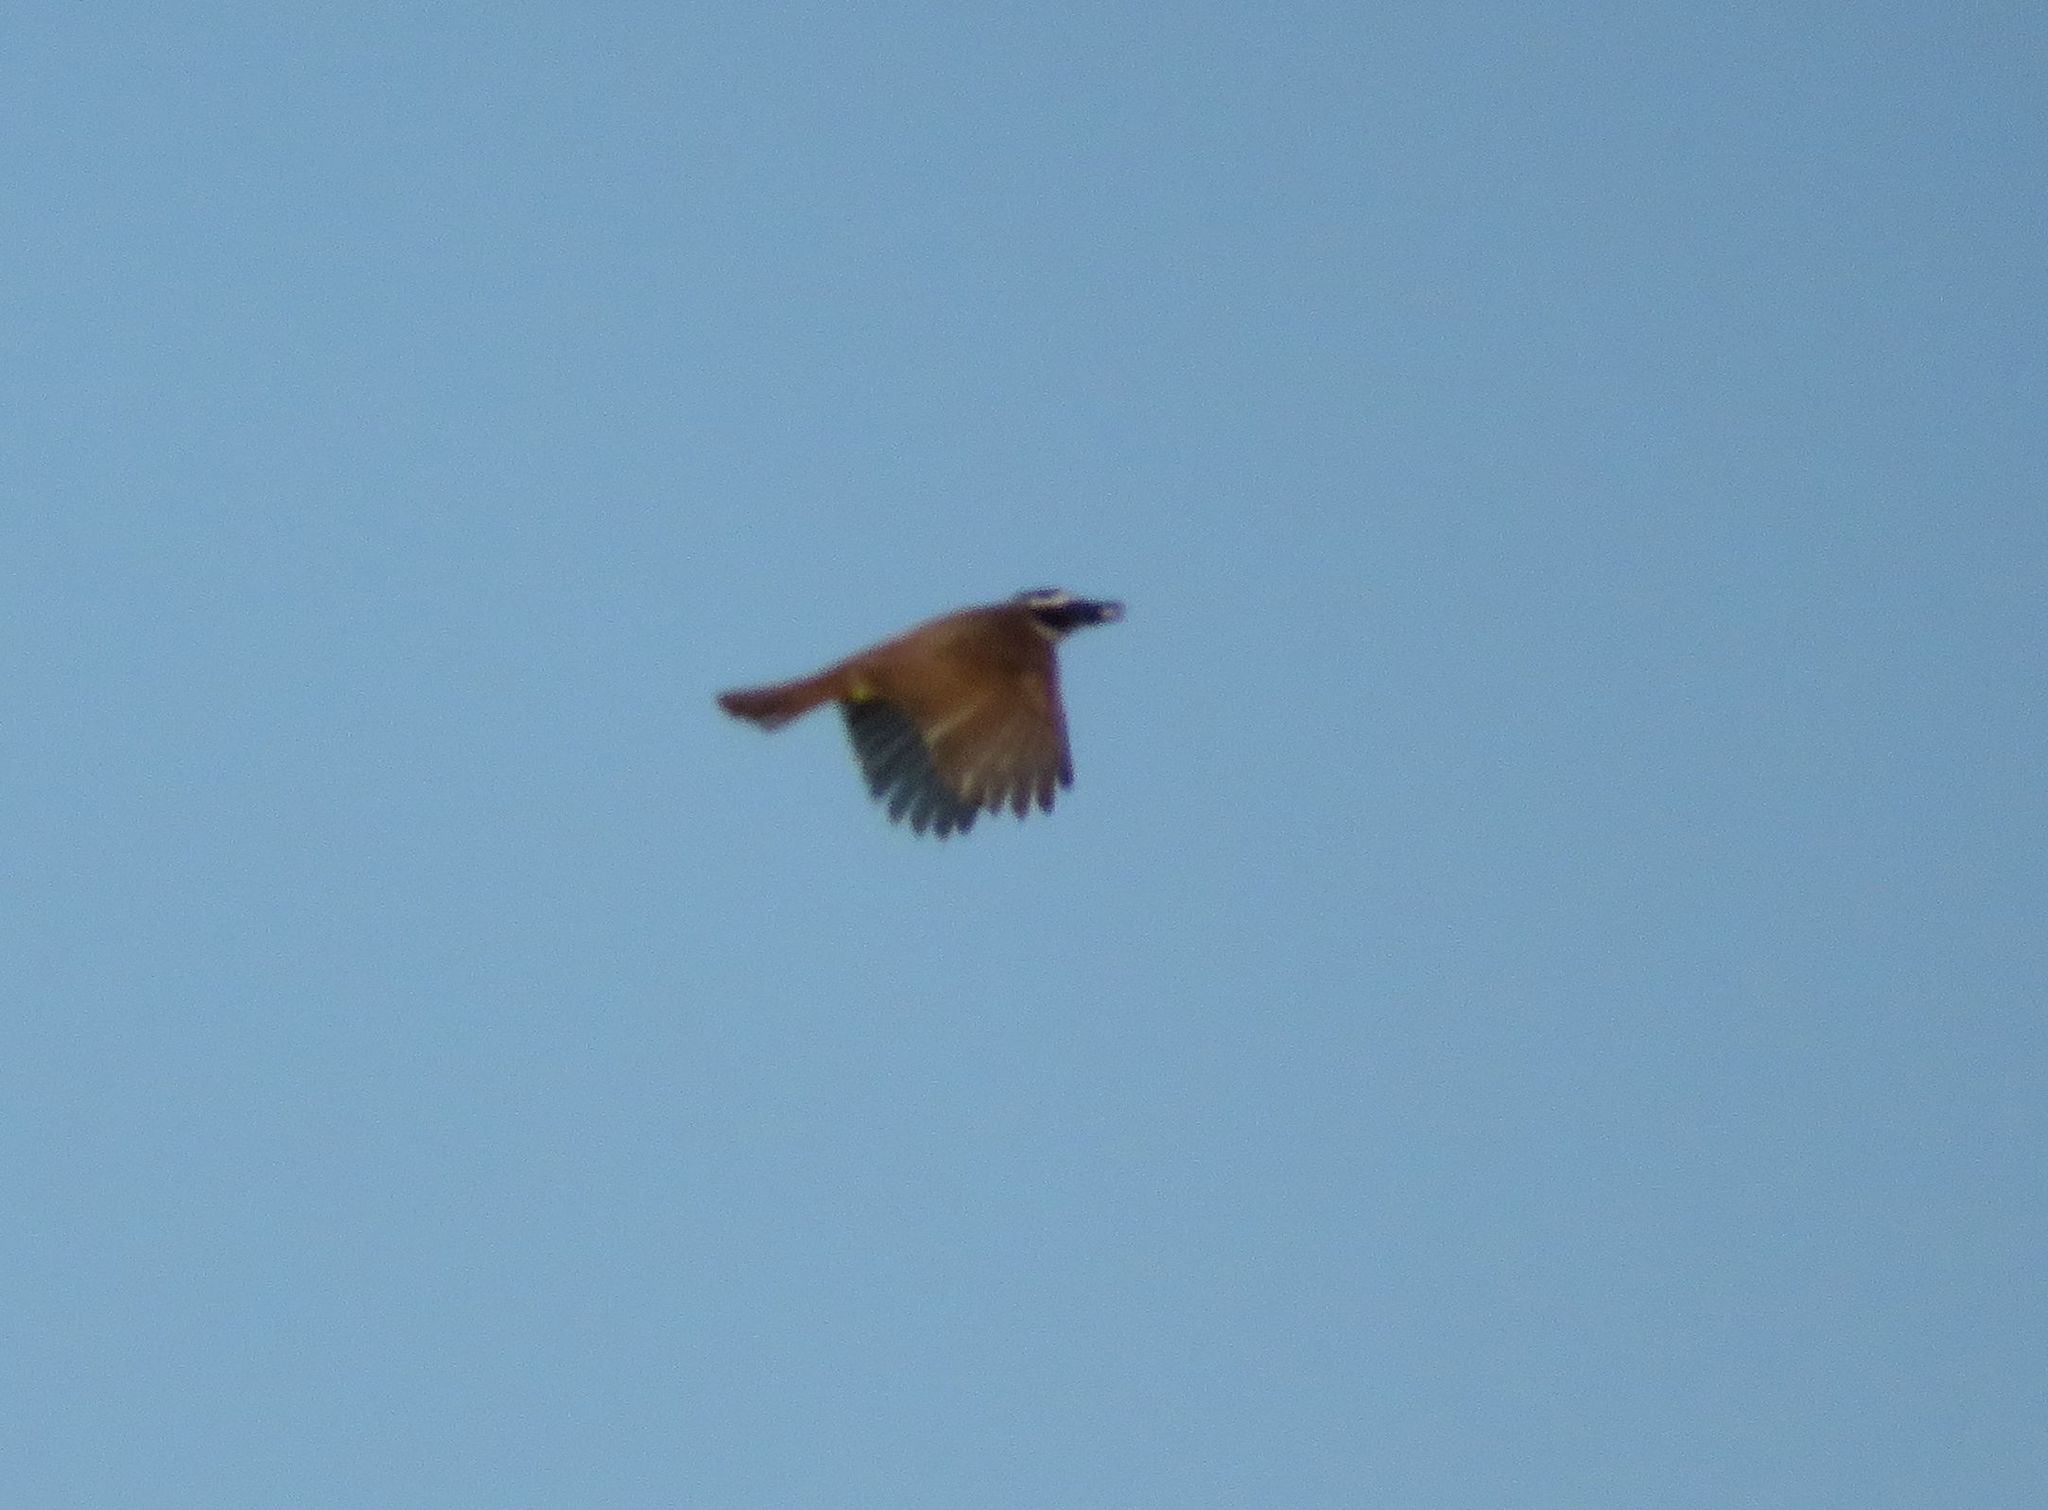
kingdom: Animalia
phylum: Chordata
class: Aves
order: Passeriformes
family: Tyrannidae
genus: Pitangus
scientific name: Pitangus sulphuratus
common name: Great kiskadee
